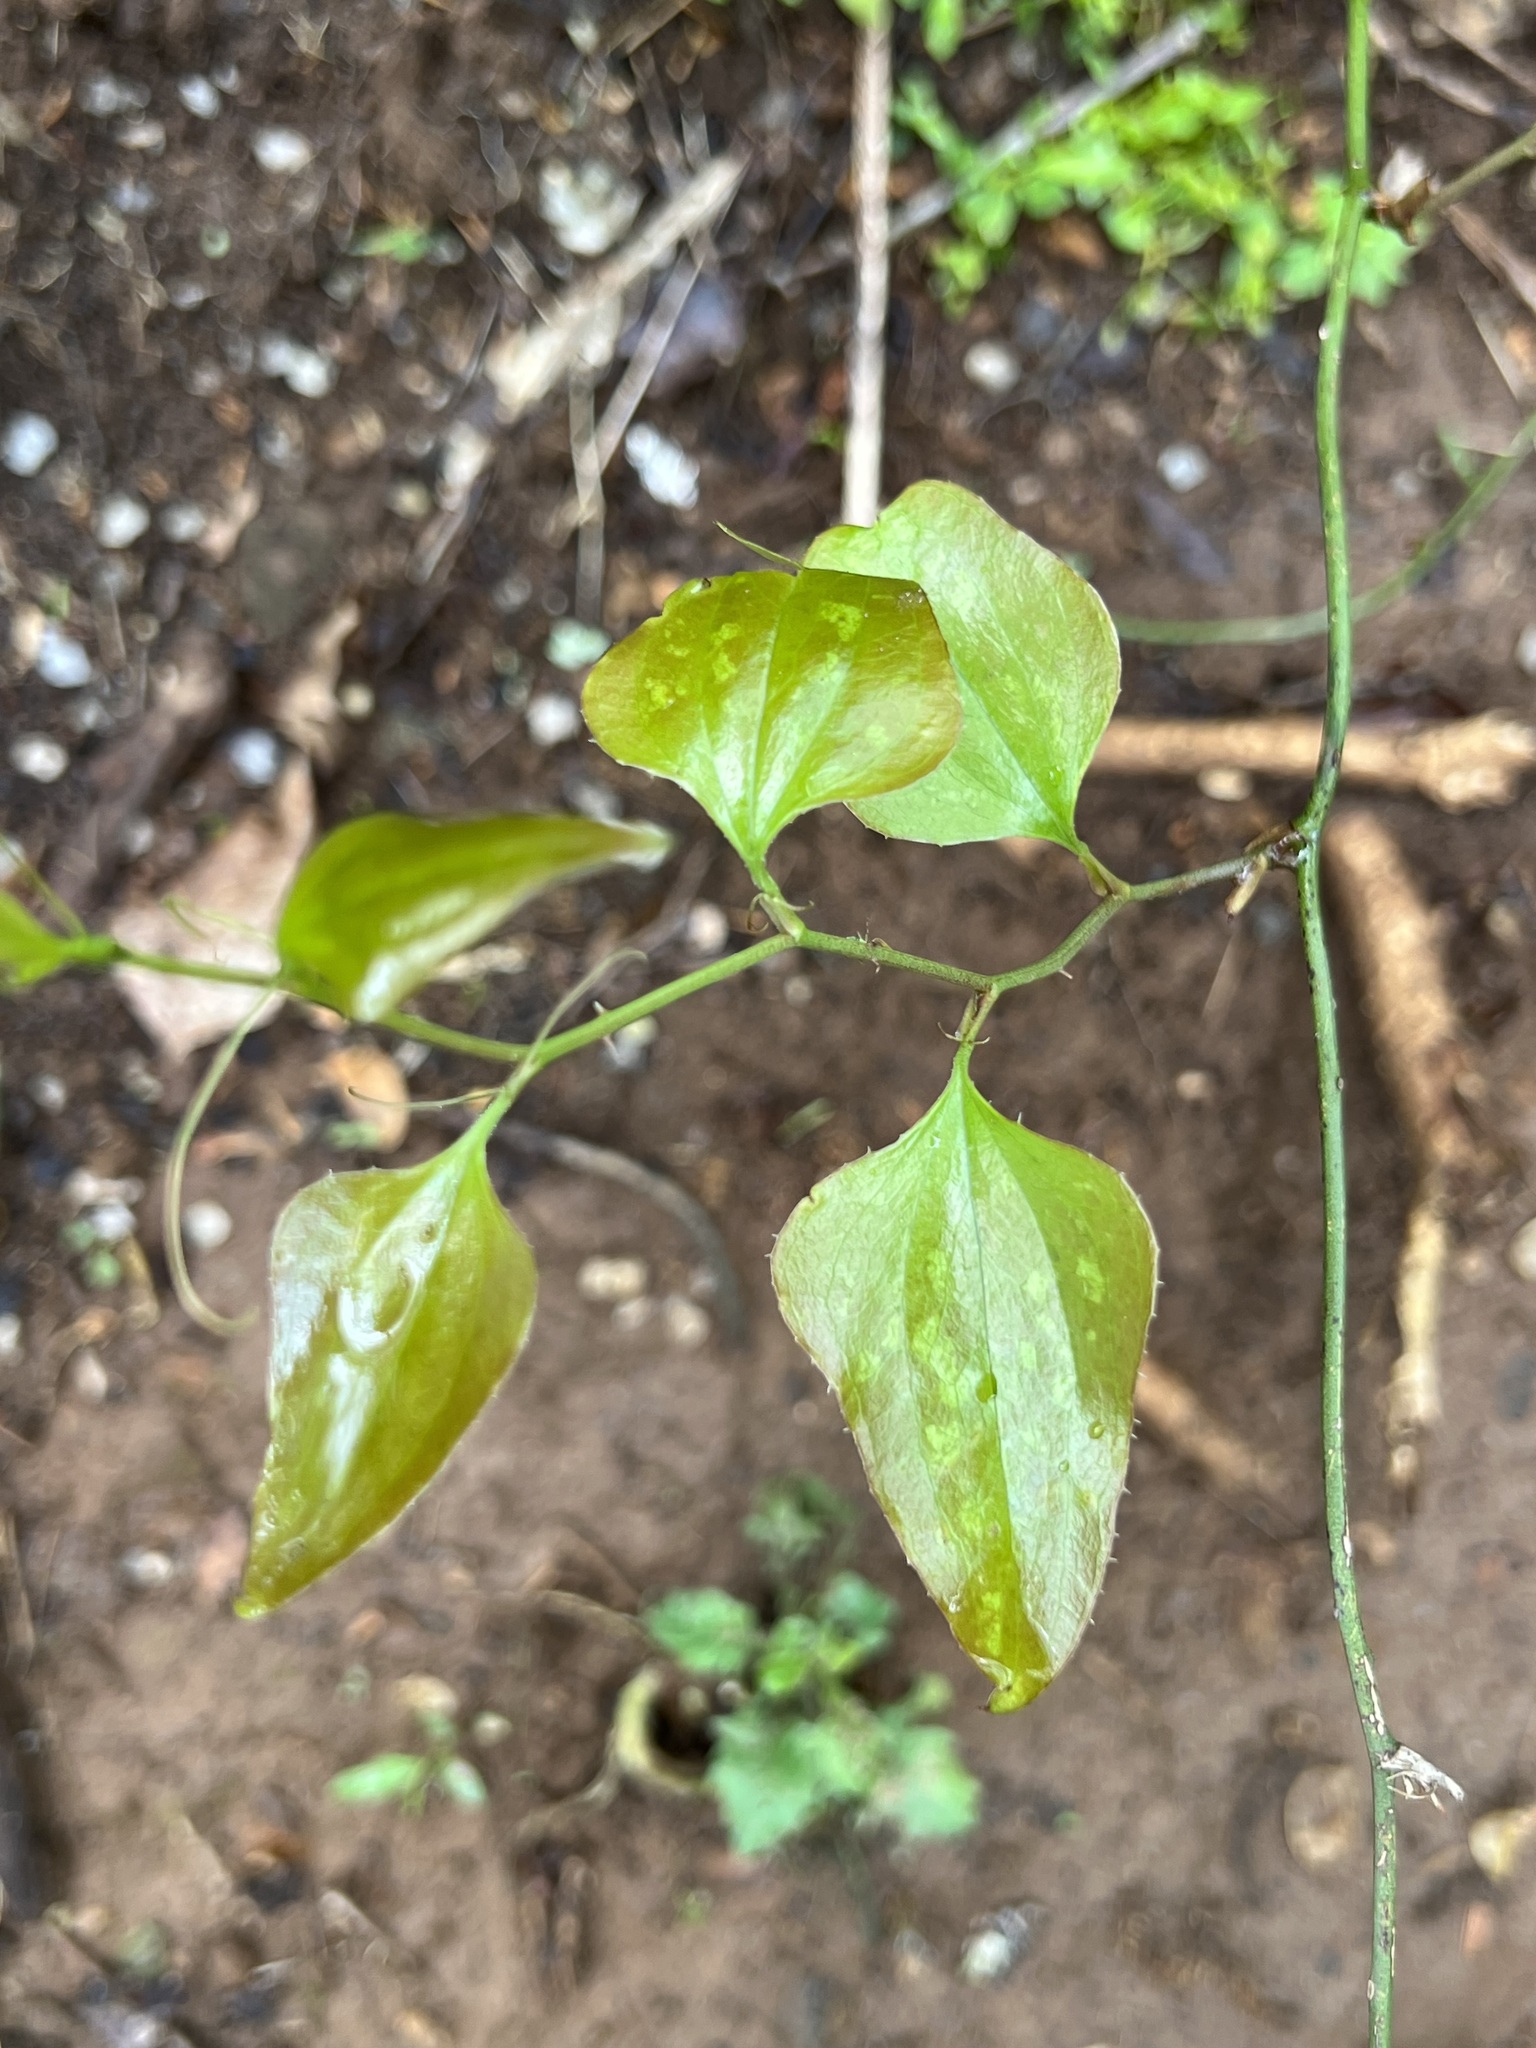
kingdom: Plantae
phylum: Tracheophyta
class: Liliopsida
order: Liliales
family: Smilacaceae
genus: Smilax
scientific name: Smilax bona-nox
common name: Catbrier
